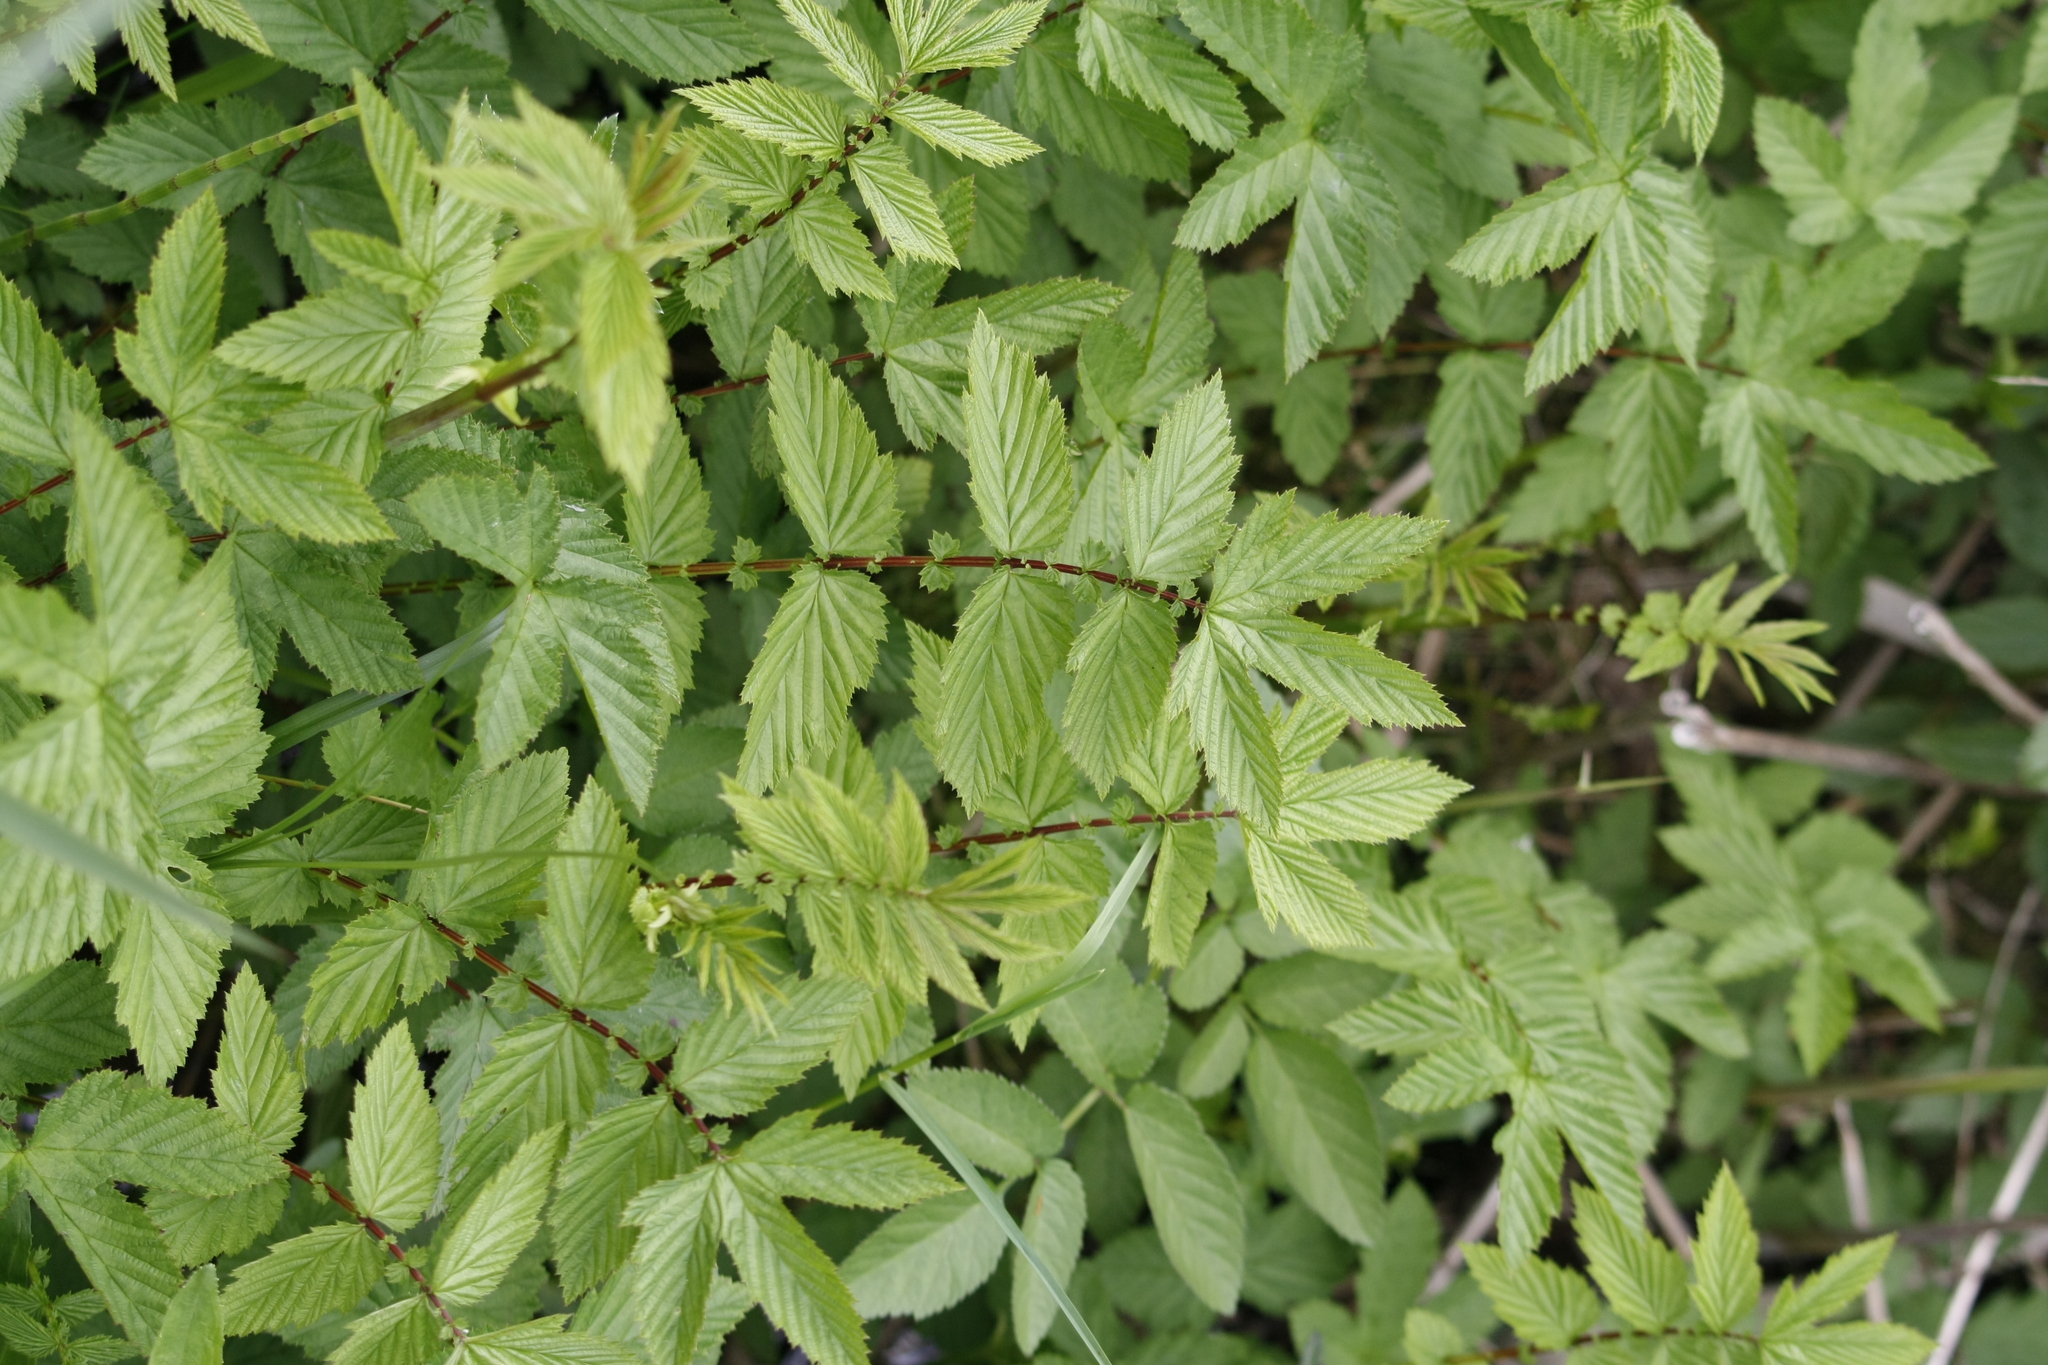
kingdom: Plantae
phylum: Tracheophyta
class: Magnoliopsida
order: Rosales
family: Rosaceae
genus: Filipendula
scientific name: Filipendula ulmaria
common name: Meadowsweet
